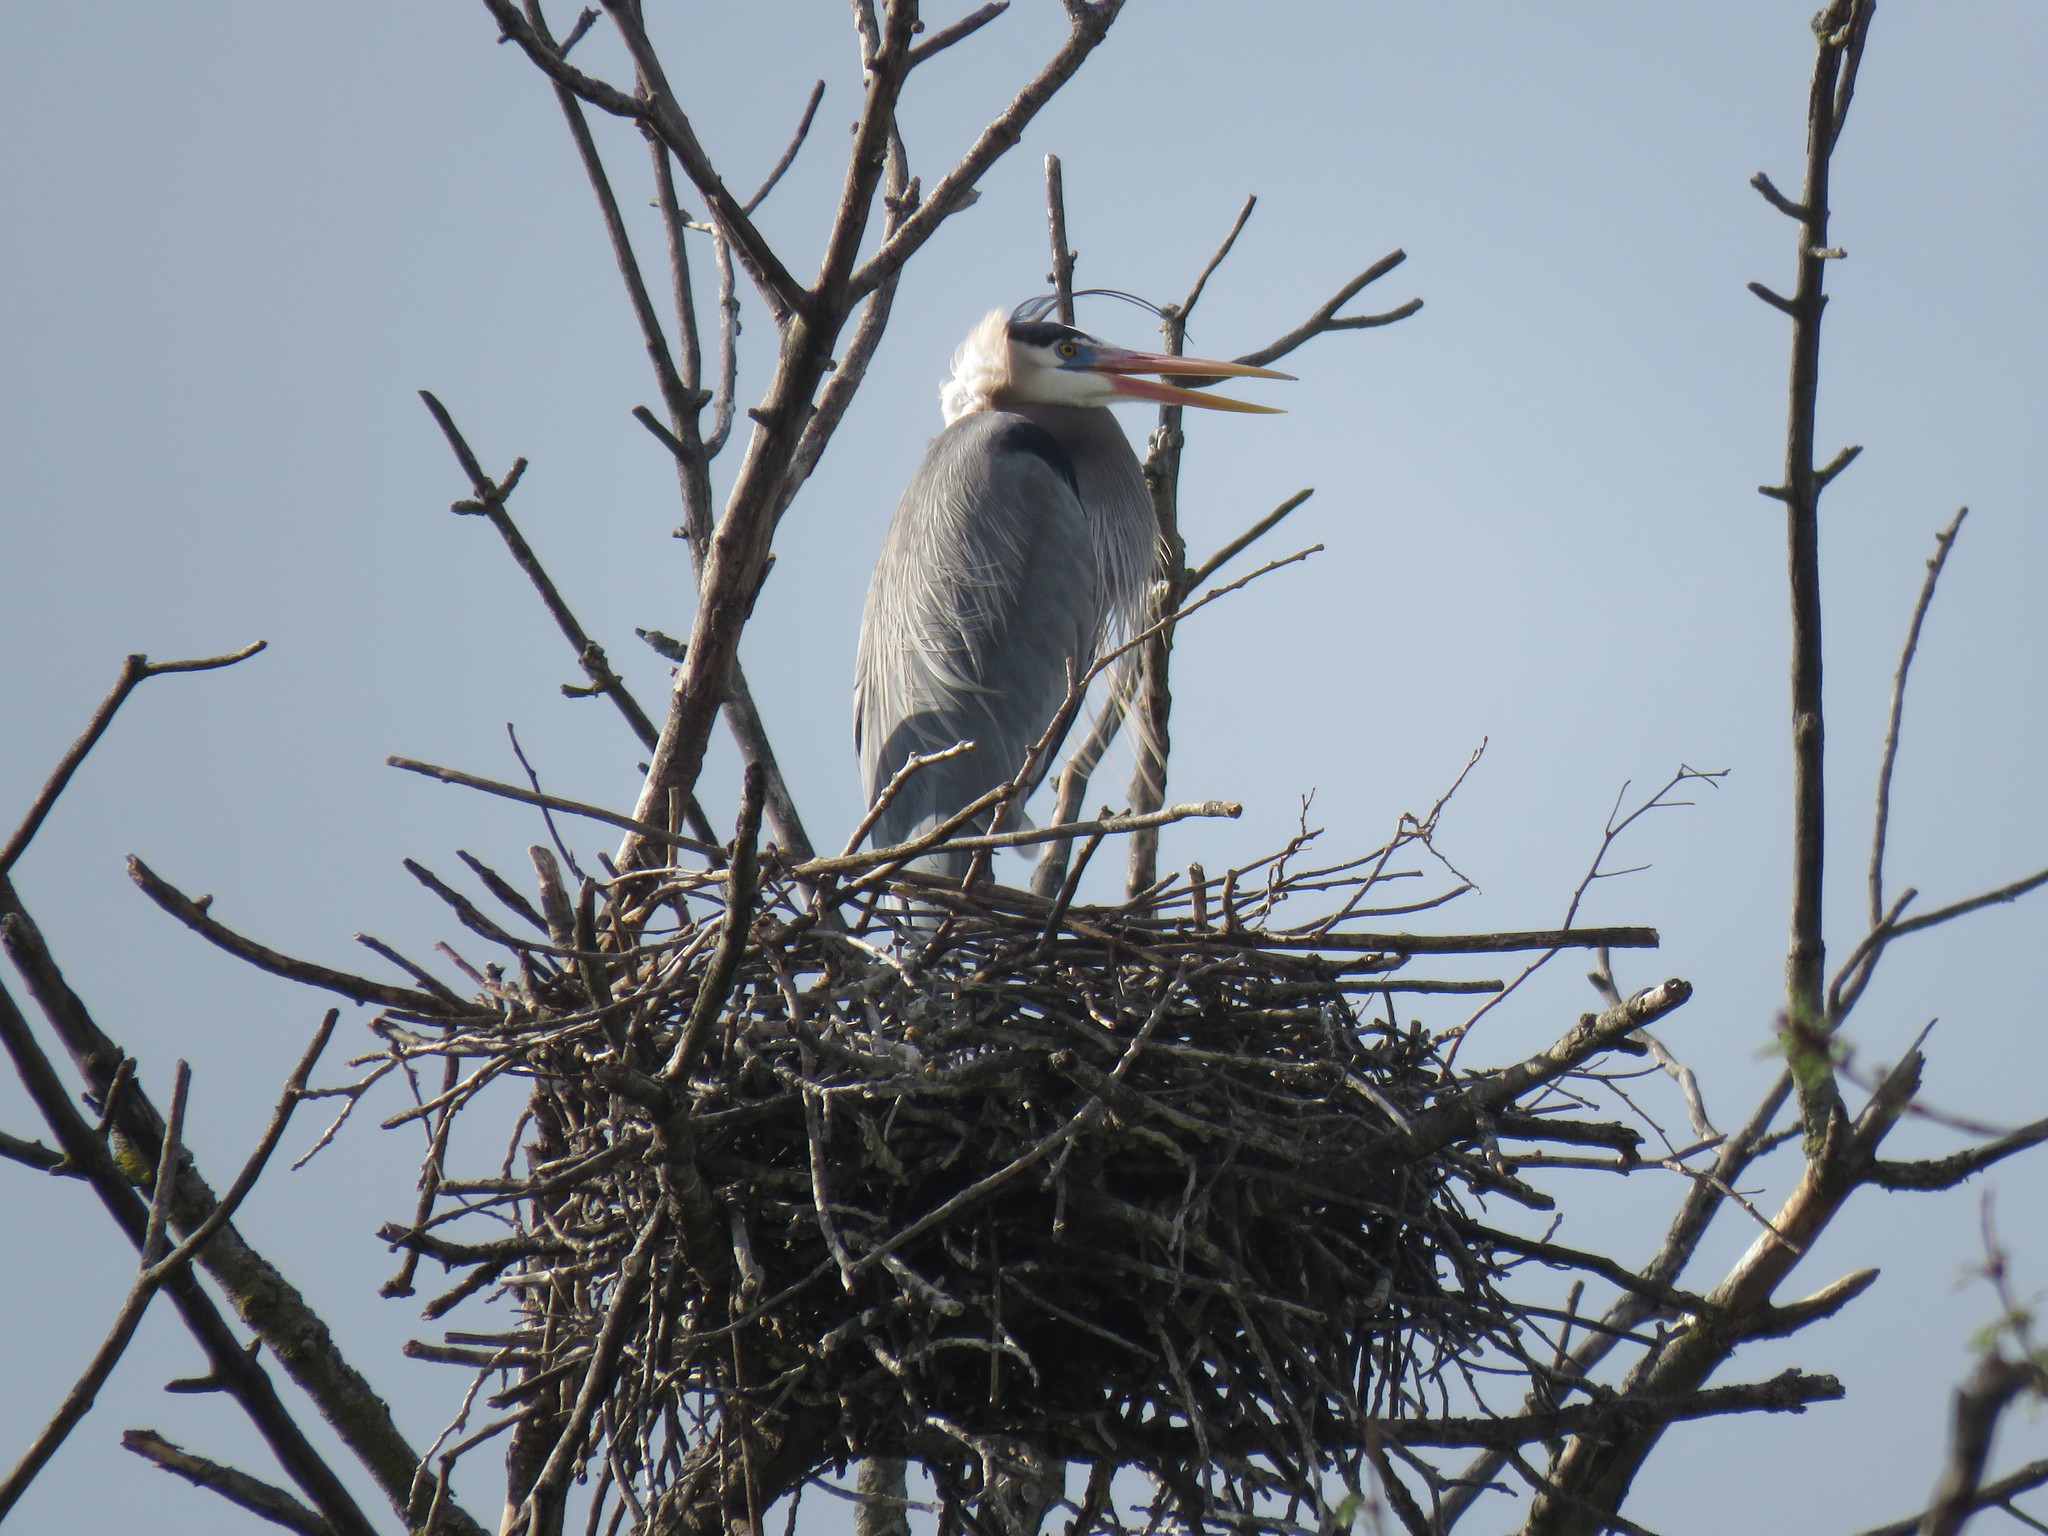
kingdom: Animalia
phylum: Chordata
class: Aves
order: Pelecaniformes
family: Ardeidae
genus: Ardea
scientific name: Ardea herodias
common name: Great blue heron
